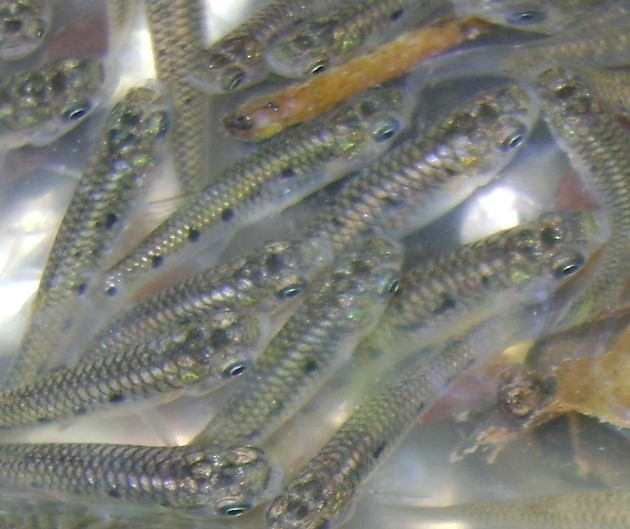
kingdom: Animalia
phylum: Chordata
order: Cyprinodontiformes
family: Poeciliidae
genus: Poeciliopsis
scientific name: Poeciliopsis gracilis
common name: Porthole livebearer
